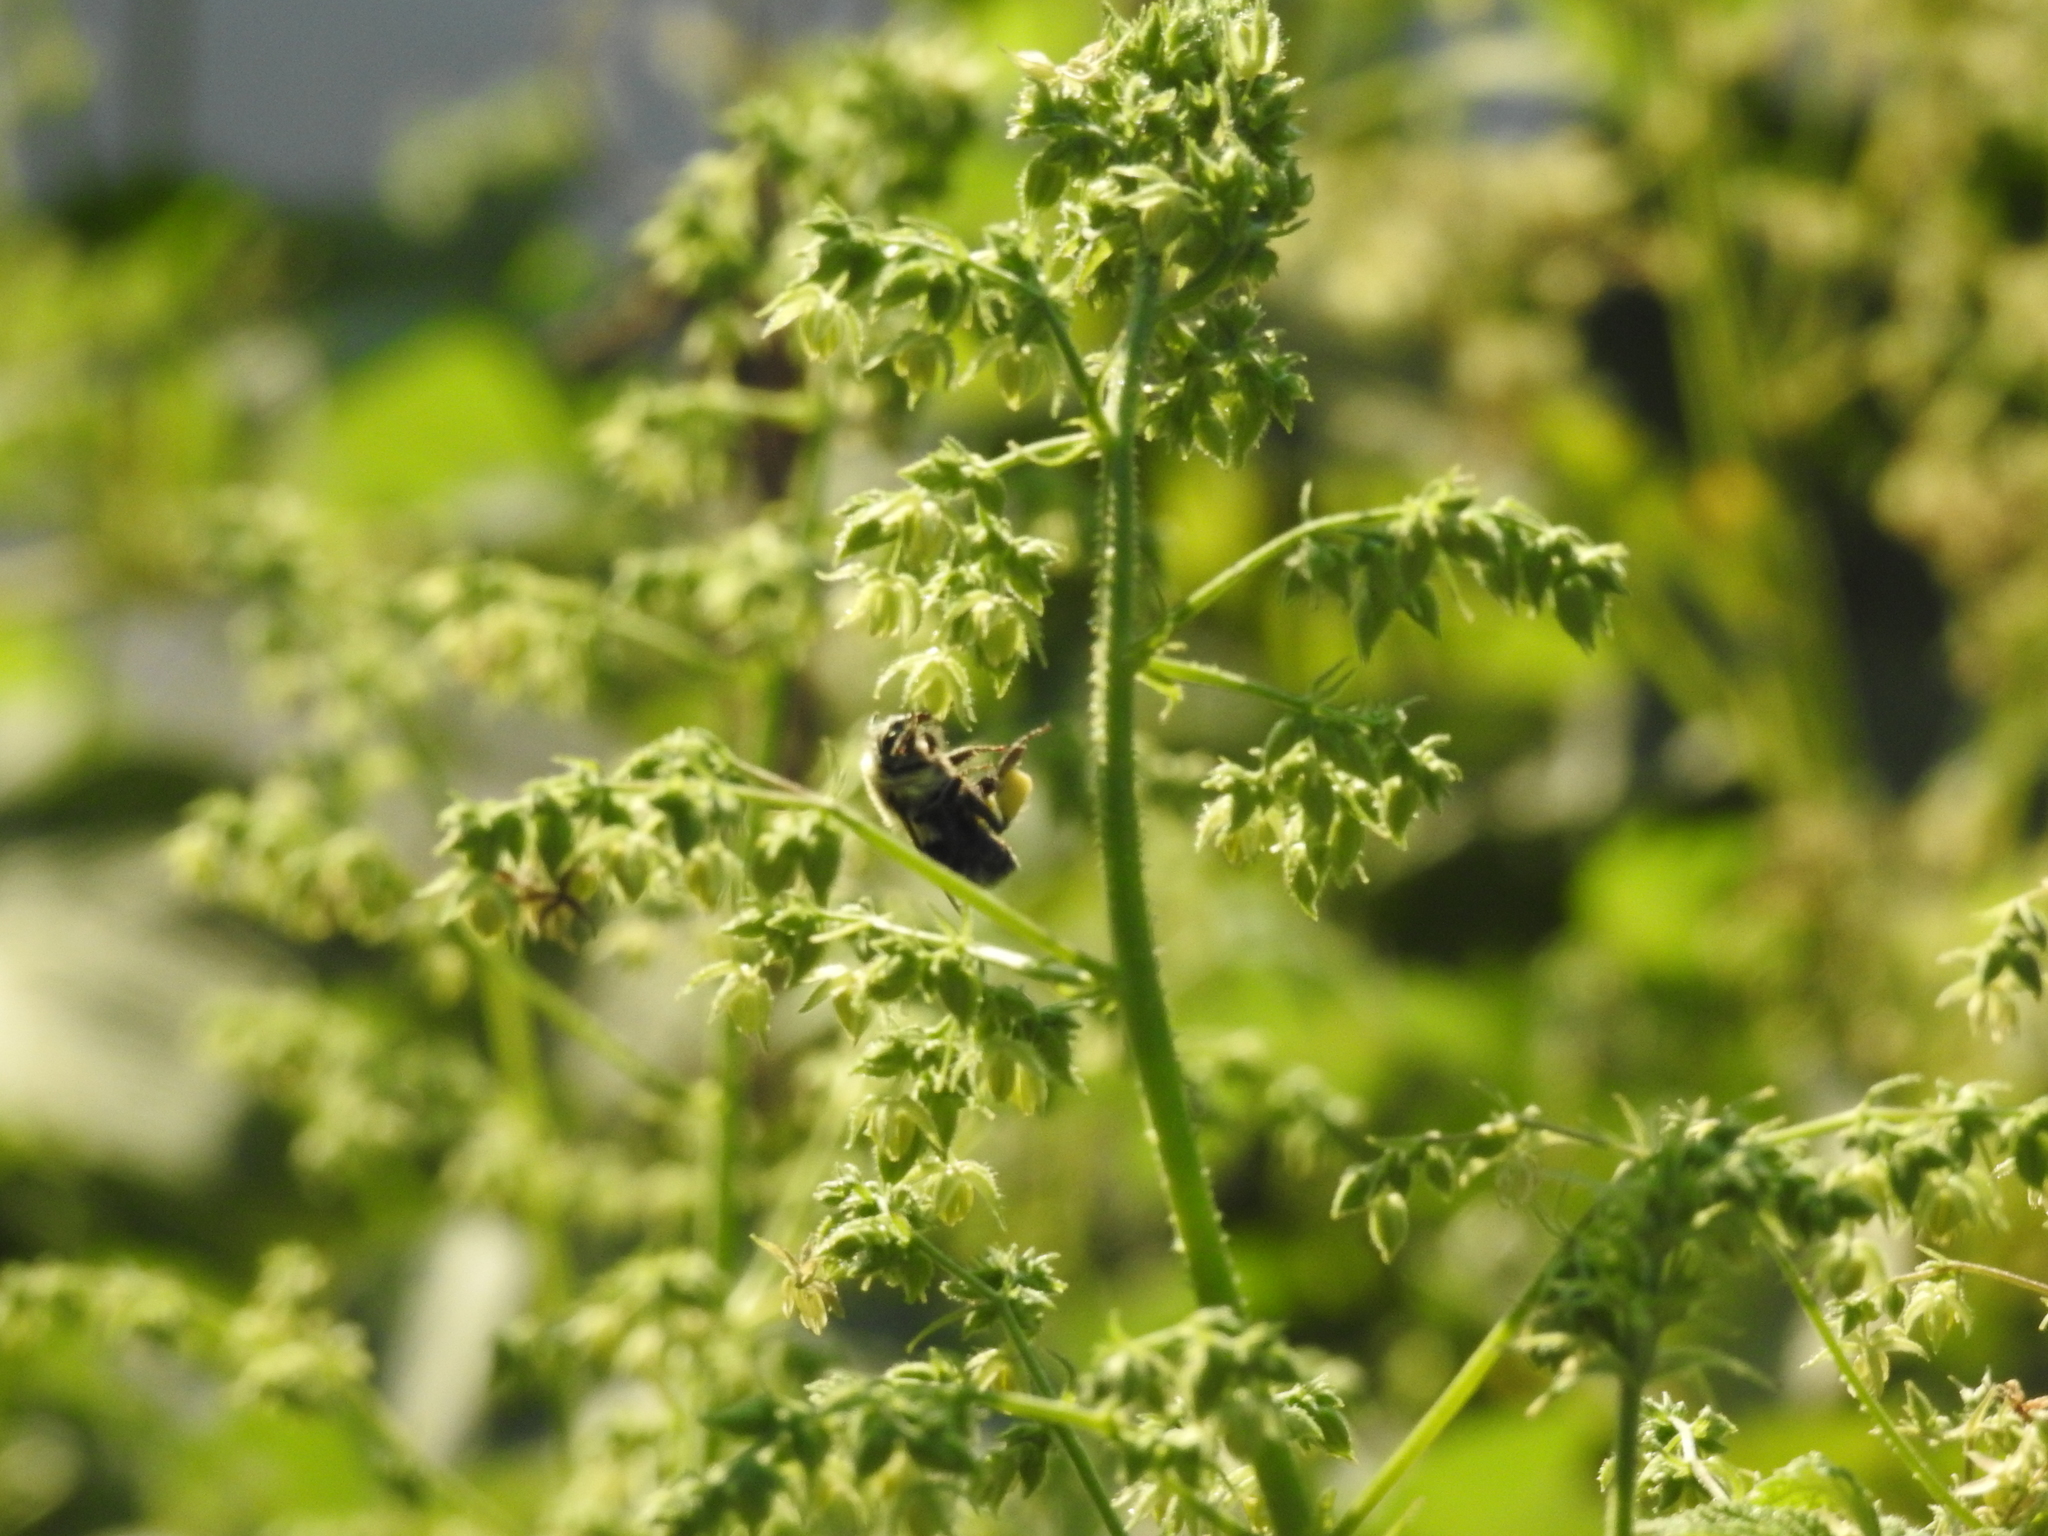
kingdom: Animalia
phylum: Arthropoda
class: Insecta
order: Hymenoptera
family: Apidae
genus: Bombus
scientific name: Bombus impatiens
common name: Common eastern bumble bee
